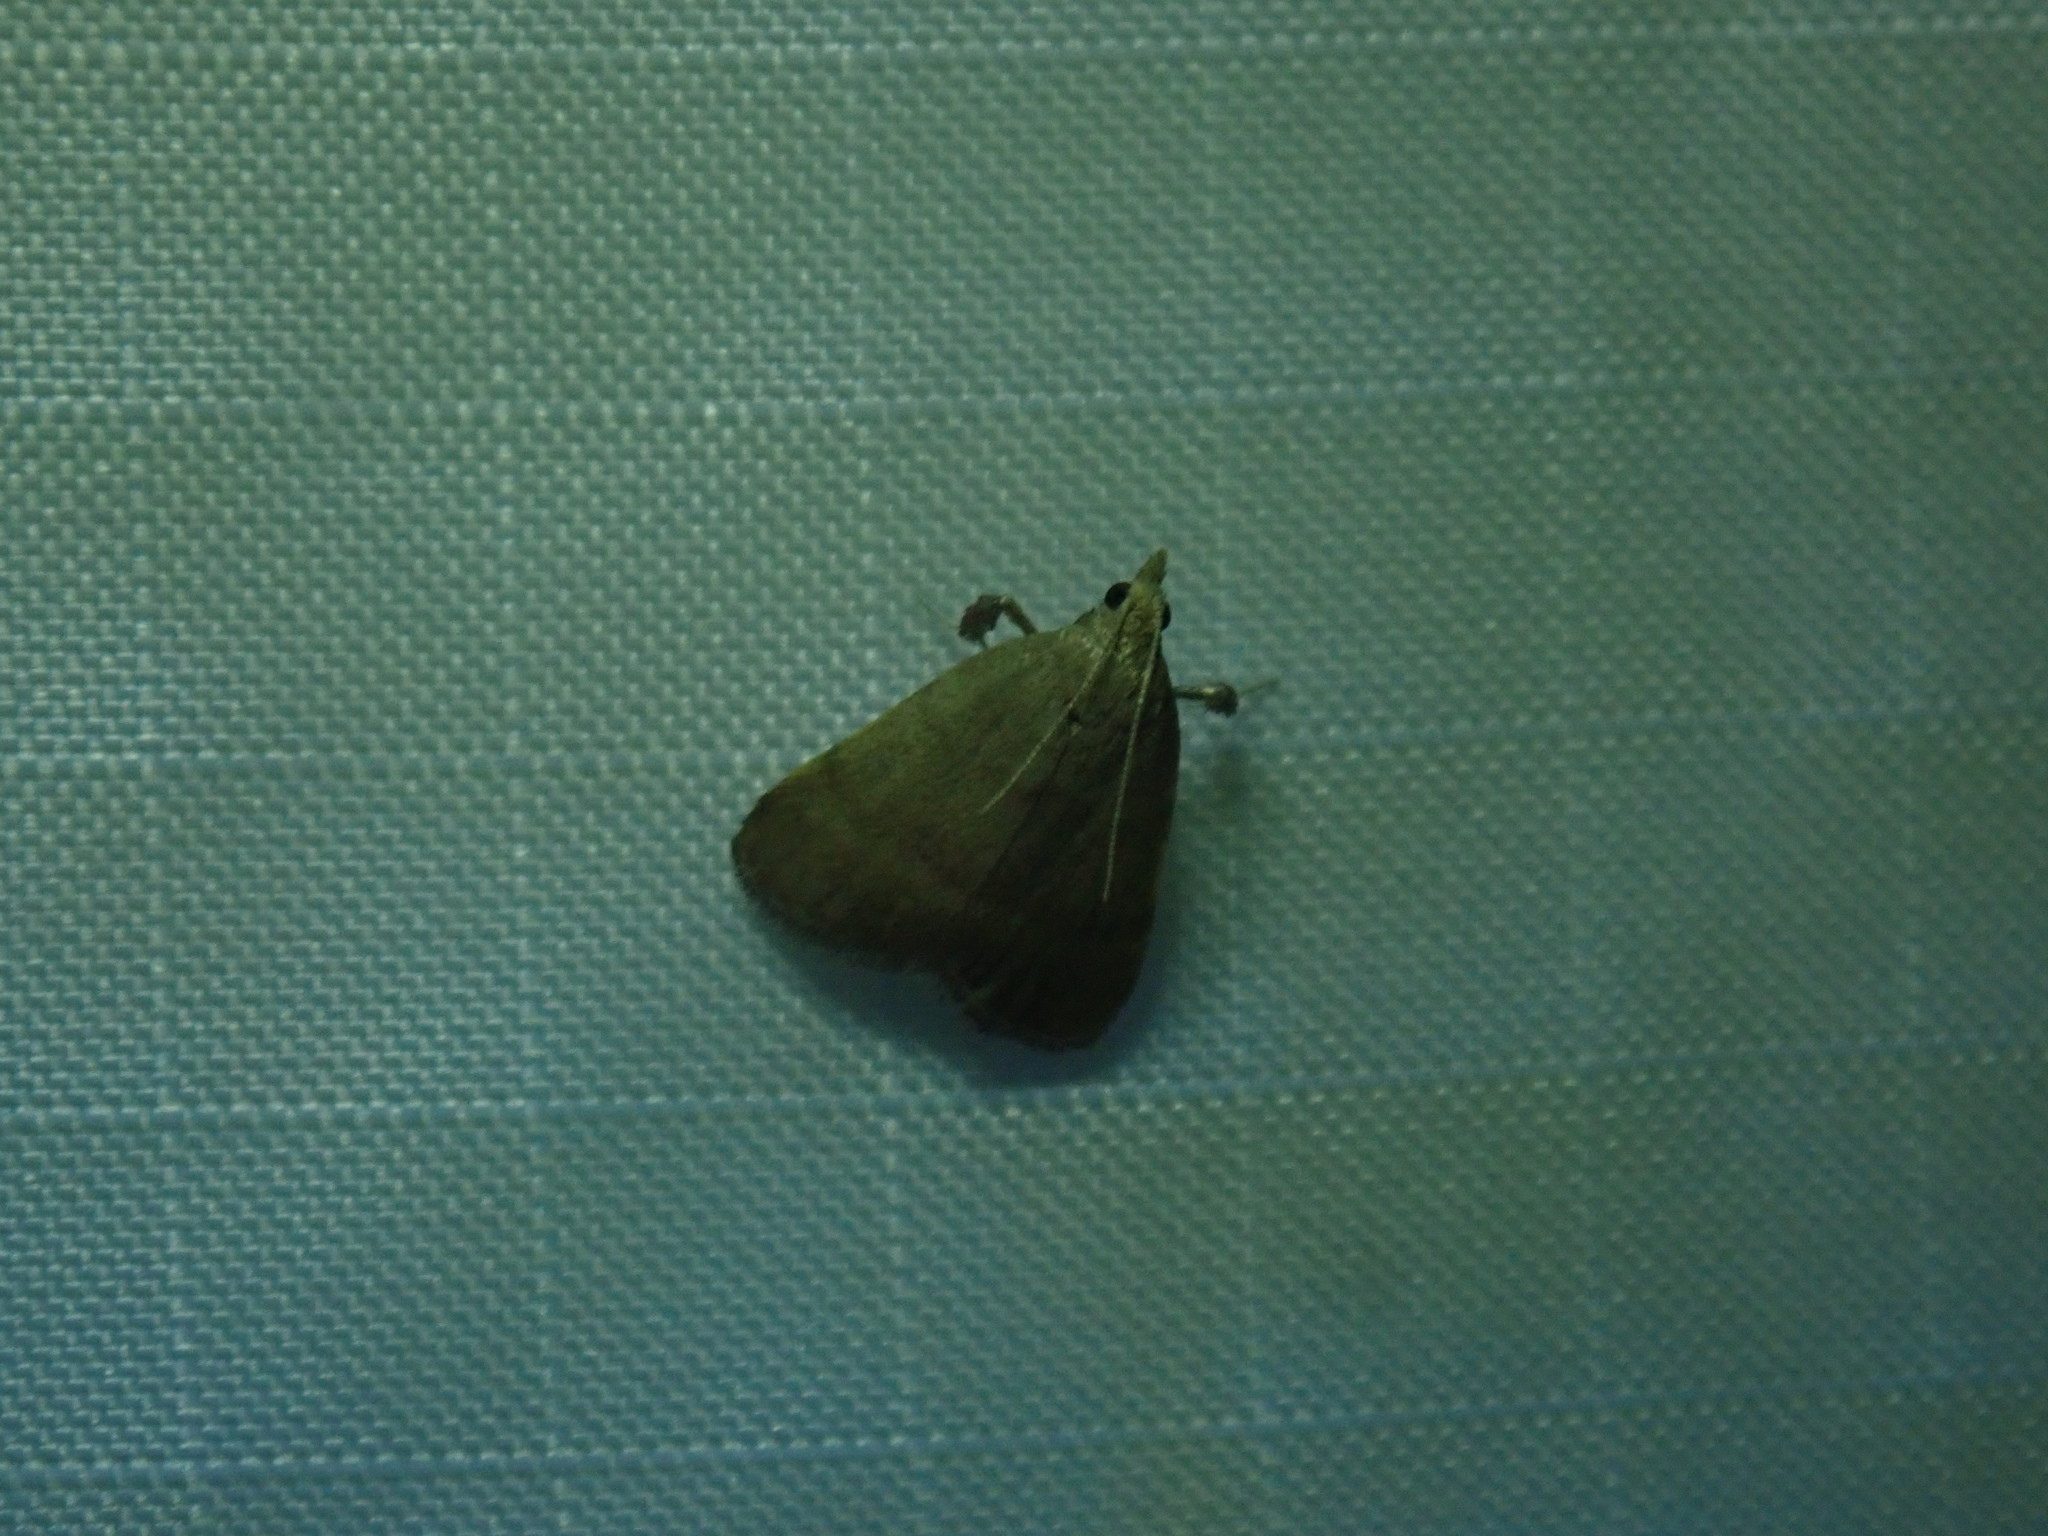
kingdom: Animalia
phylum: Arthropoda
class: Insecta
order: Lepidoptera
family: Pyralidae
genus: Condylolomia
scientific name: Condylolomia participialis
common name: Drab condylolomia moth
